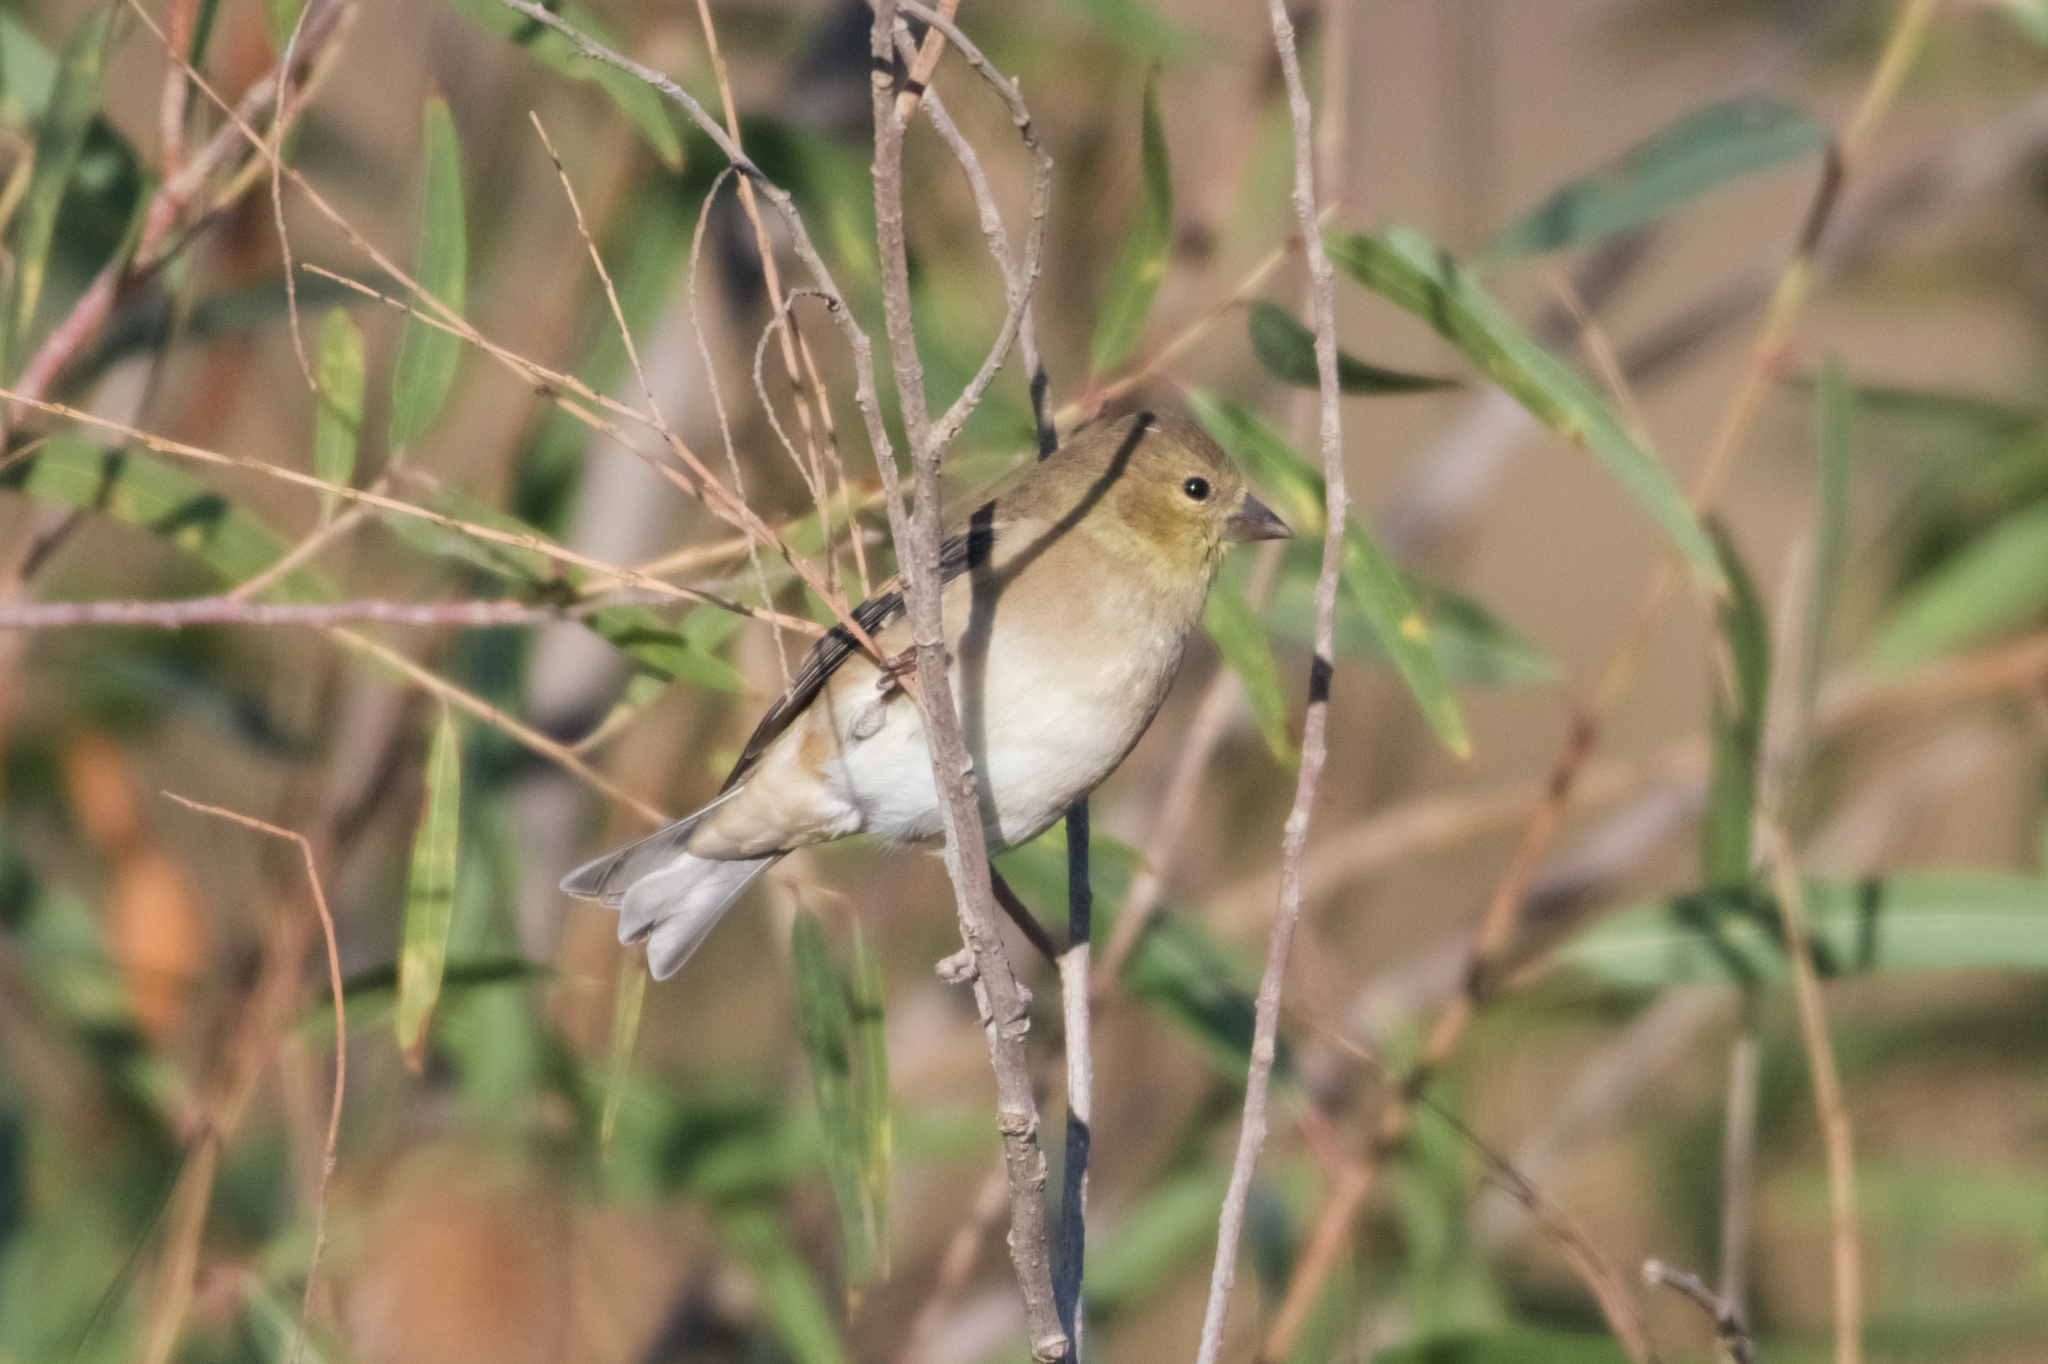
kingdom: Animalia
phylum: Chordata
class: Aves
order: Passeriformes
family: Fringillidae
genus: Spinus
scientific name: Spinus tristis
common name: American goldfinch
